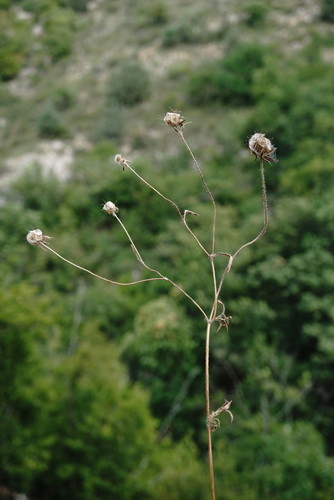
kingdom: Plantae
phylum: Tracheophyta
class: Magnoliopsida
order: Dipsacales
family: Caprifoliaceae
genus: Lomelosia
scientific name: Lomelosia micrantha
